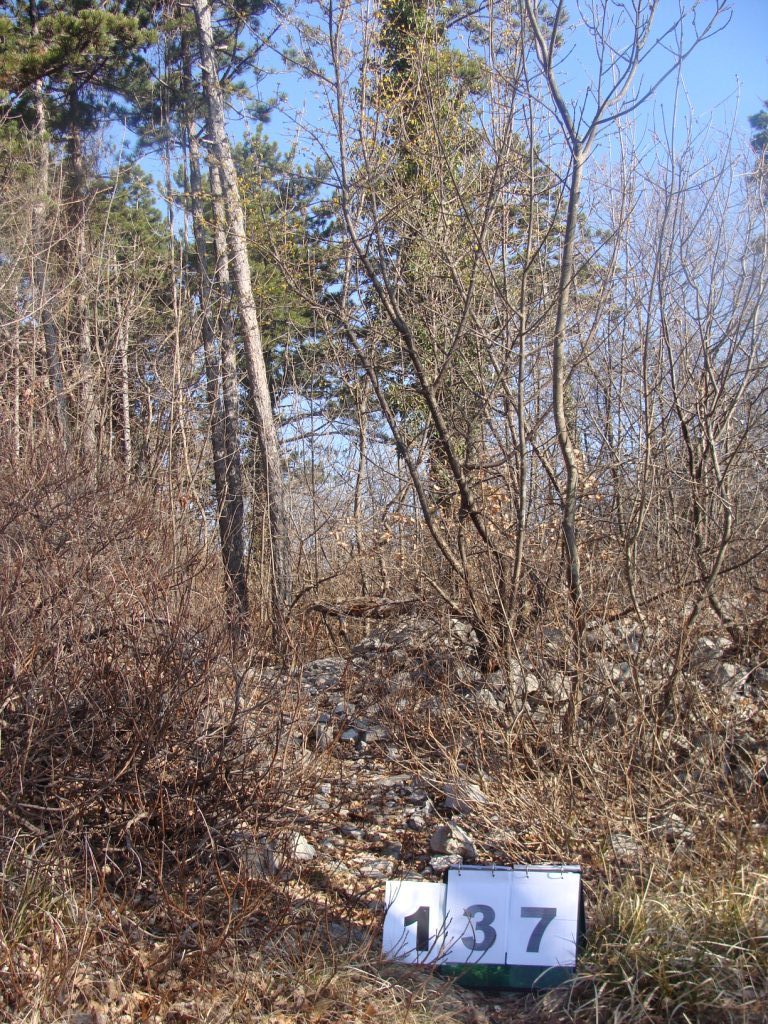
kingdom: Plantae
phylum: Tracheophyta
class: Magnoliopsida
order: Cornales
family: Cornaceae
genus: Cornus
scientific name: Cornus mas
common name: Cornelian-cherry
